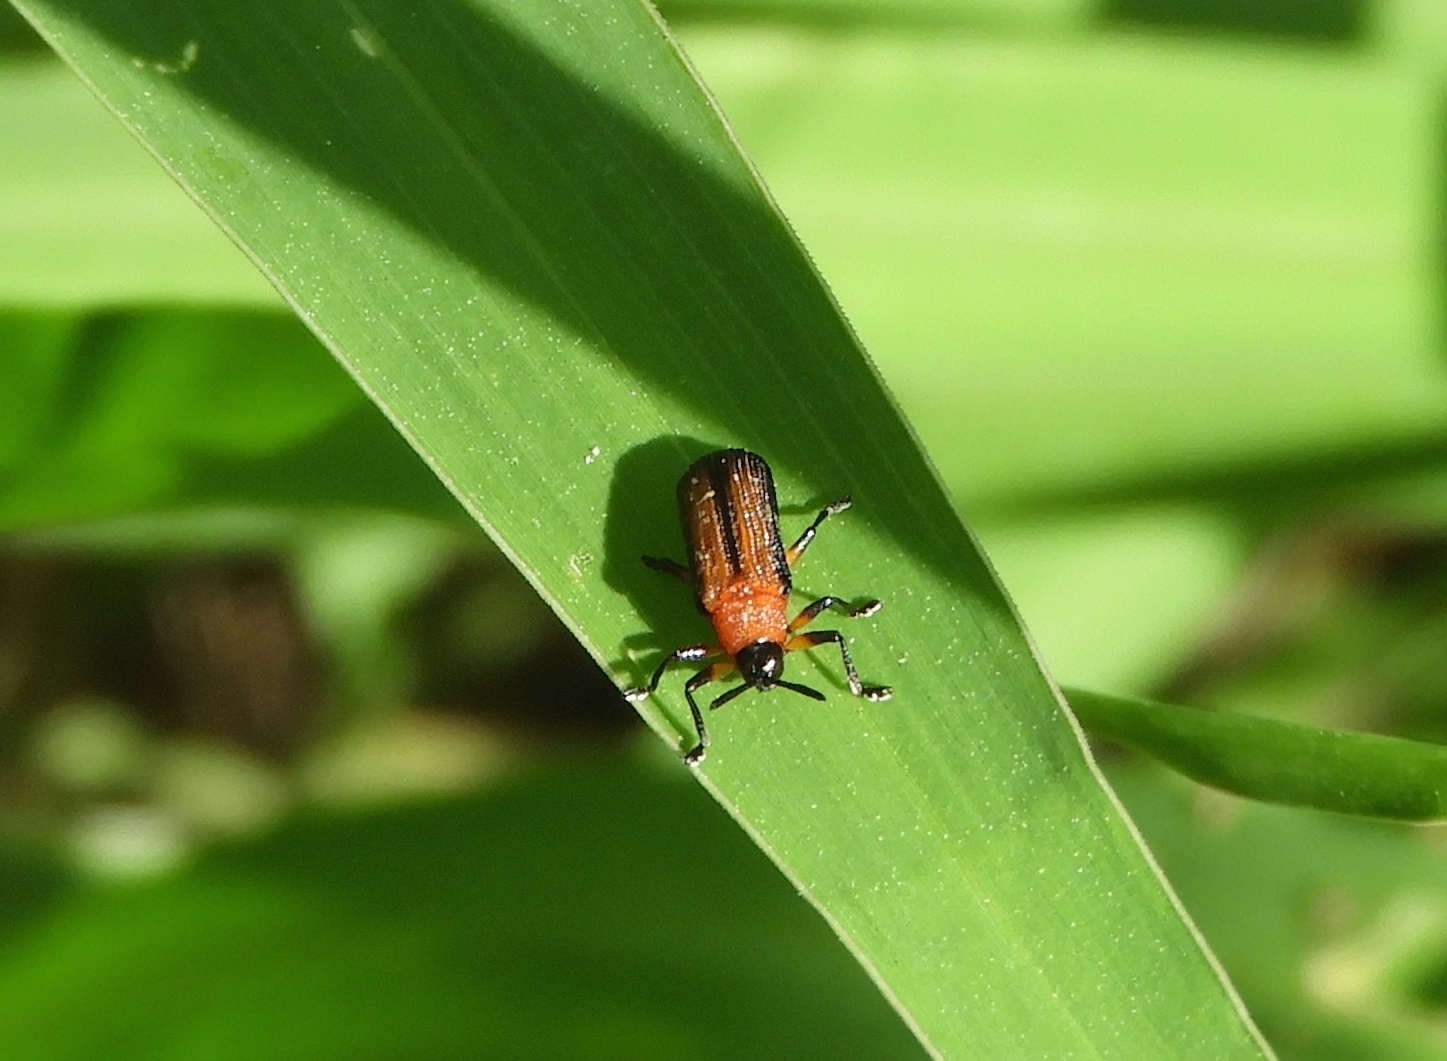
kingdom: Animalia
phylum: Arthropoda
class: Insecta
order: Coleoptera
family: Chrysomelidae
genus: Chalepus
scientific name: Chalepus bellulus
